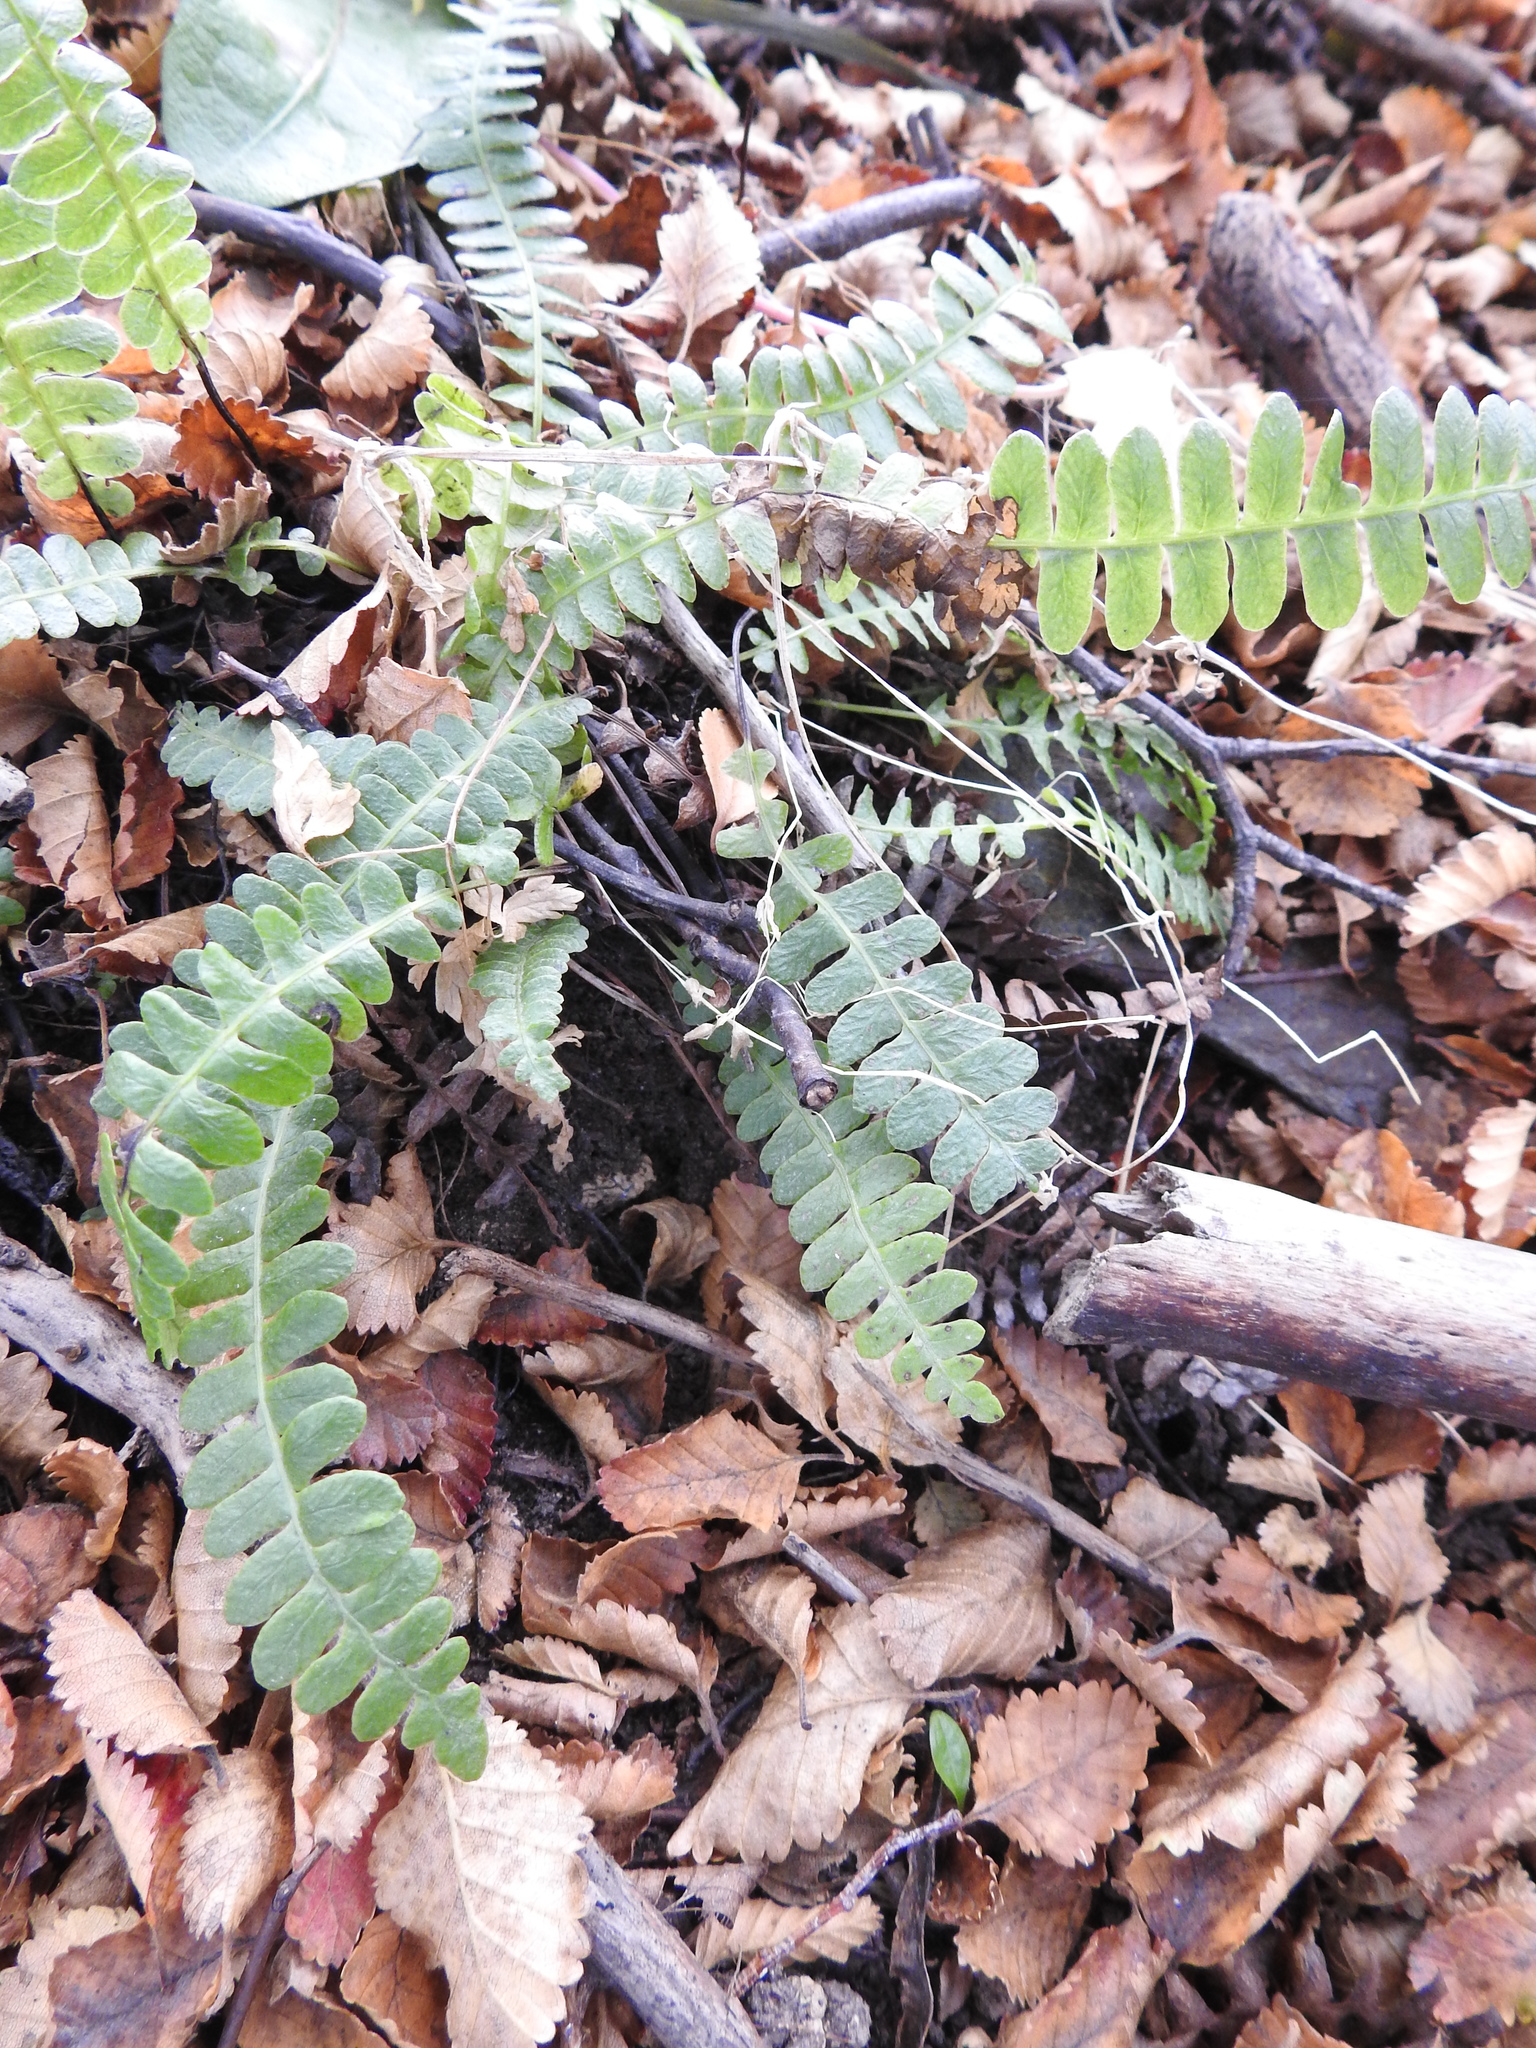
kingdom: Plantae
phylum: Tracheophyta
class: Polypodiopsida
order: Polypodiales
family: Blechnaceae
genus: Austroblechnum
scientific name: Austroblechnum penna-marina
